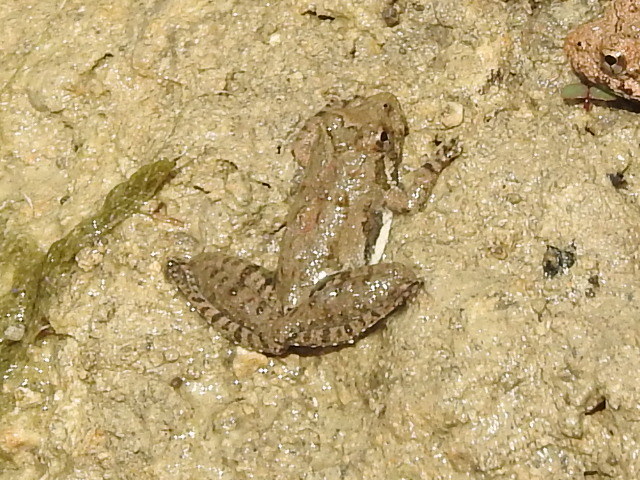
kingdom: Animalia
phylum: Chordata
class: Amphibia
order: Anura
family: Hylidae
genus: Acris
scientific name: Acris blanchardi
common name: Blanchard's cricket frog
